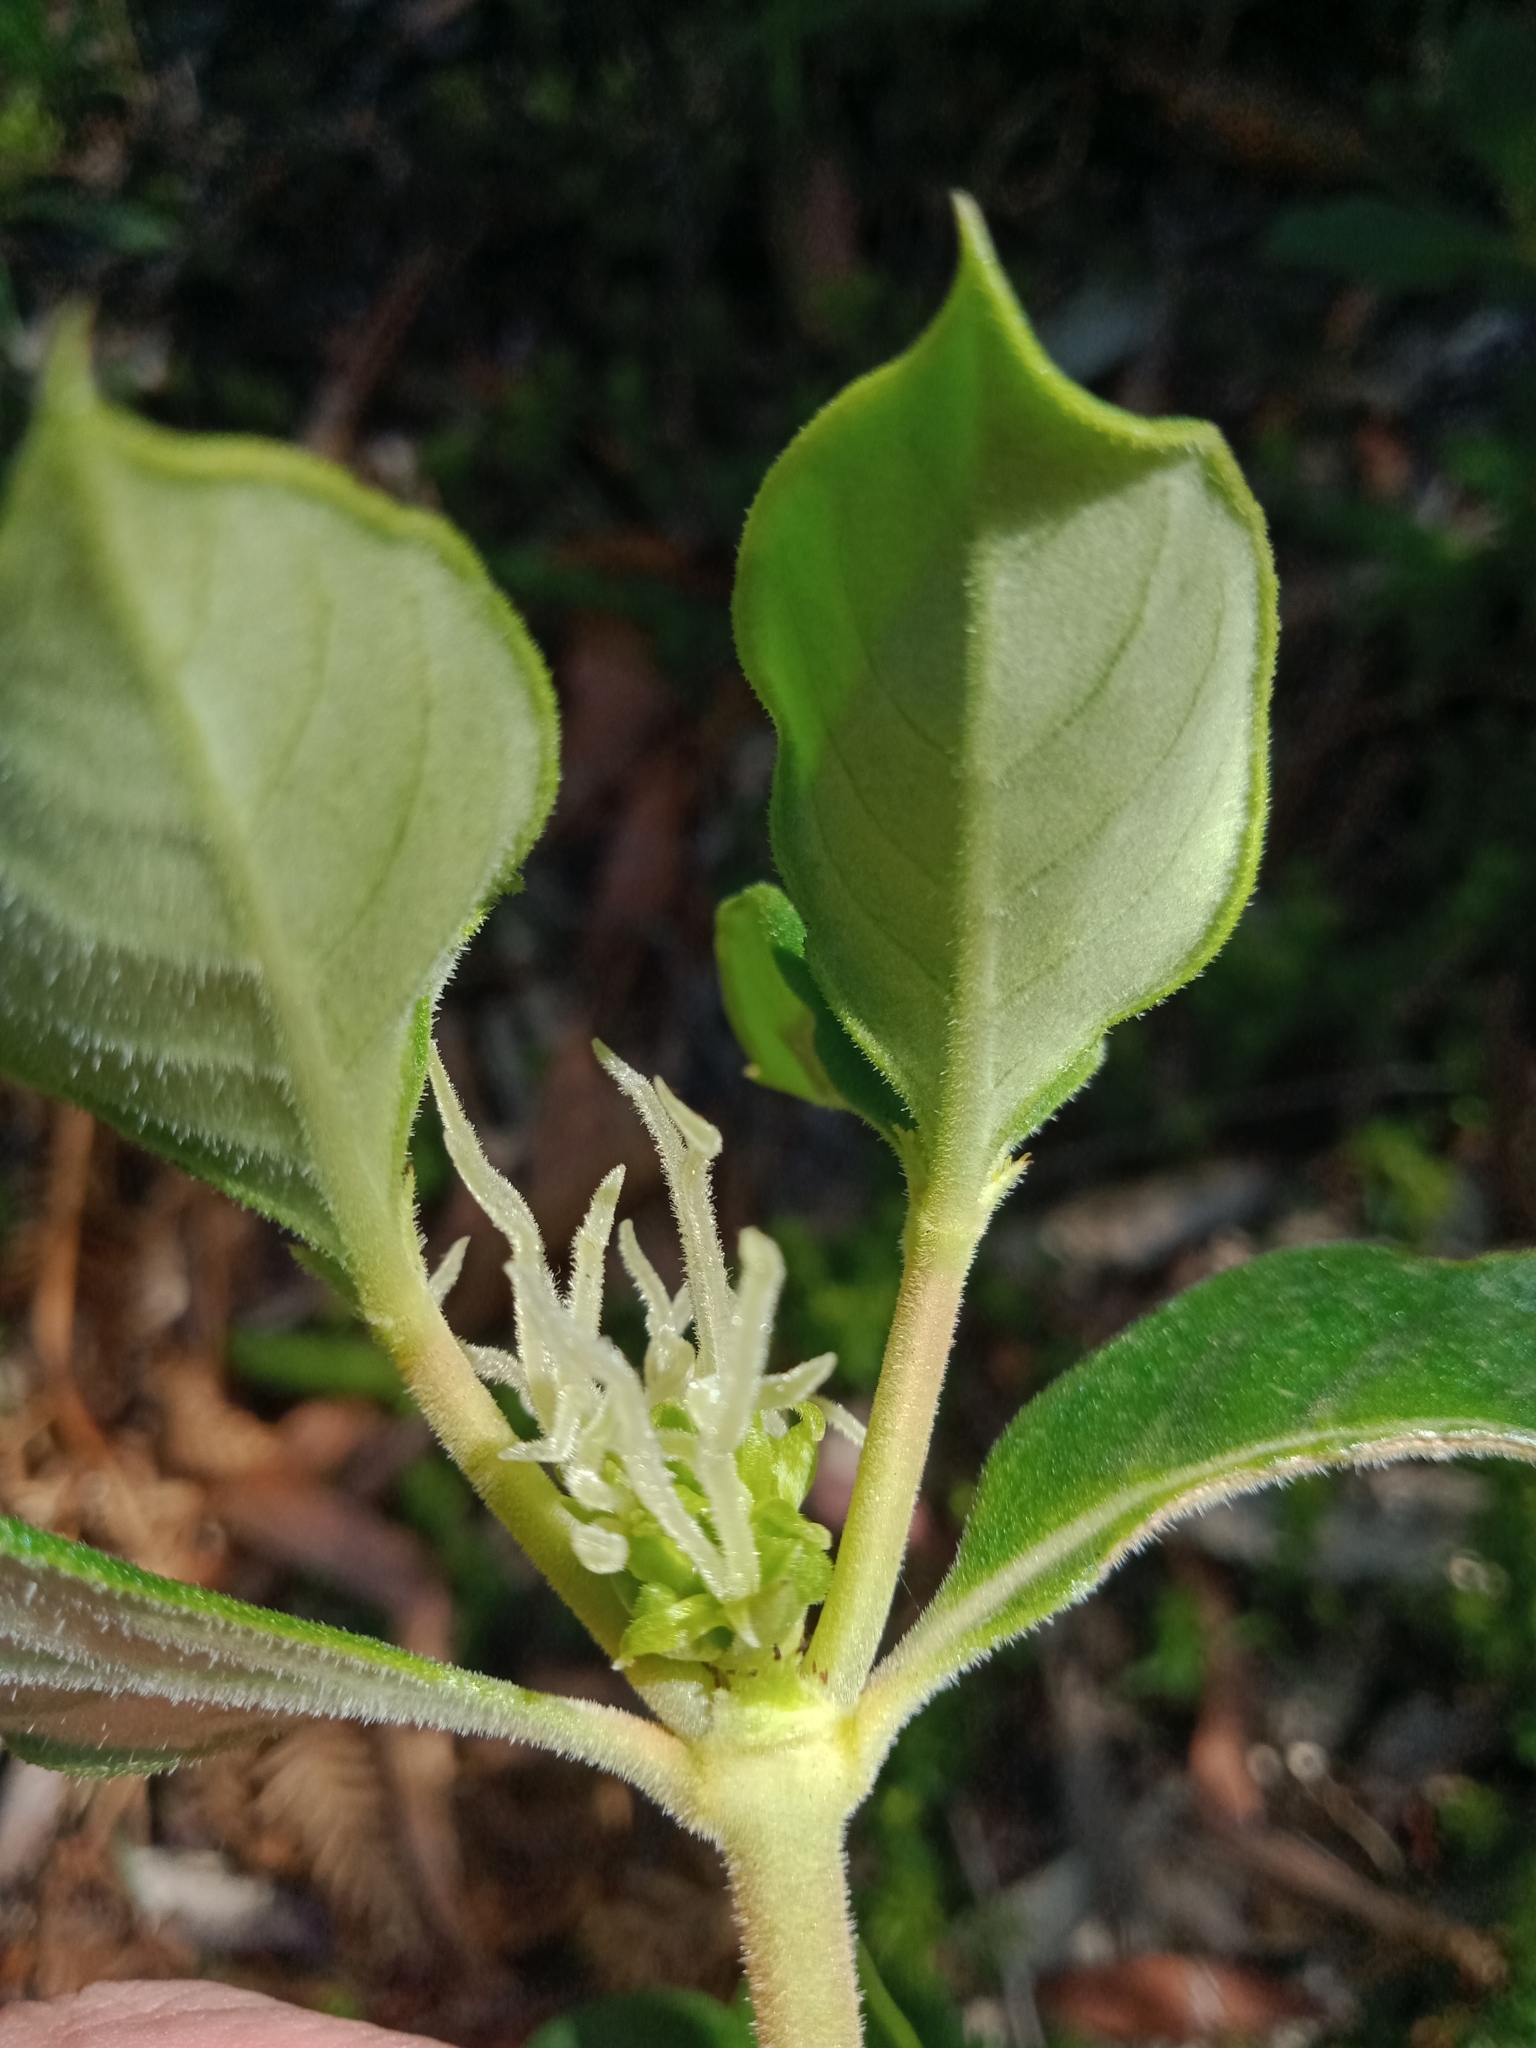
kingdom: Plantae
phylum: Tracheophyta
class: Magnoliopsida
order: Gentianales
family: Rubiaceae
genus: Coprosma
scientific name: Coprosma hirtella
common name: Rough coprosma
